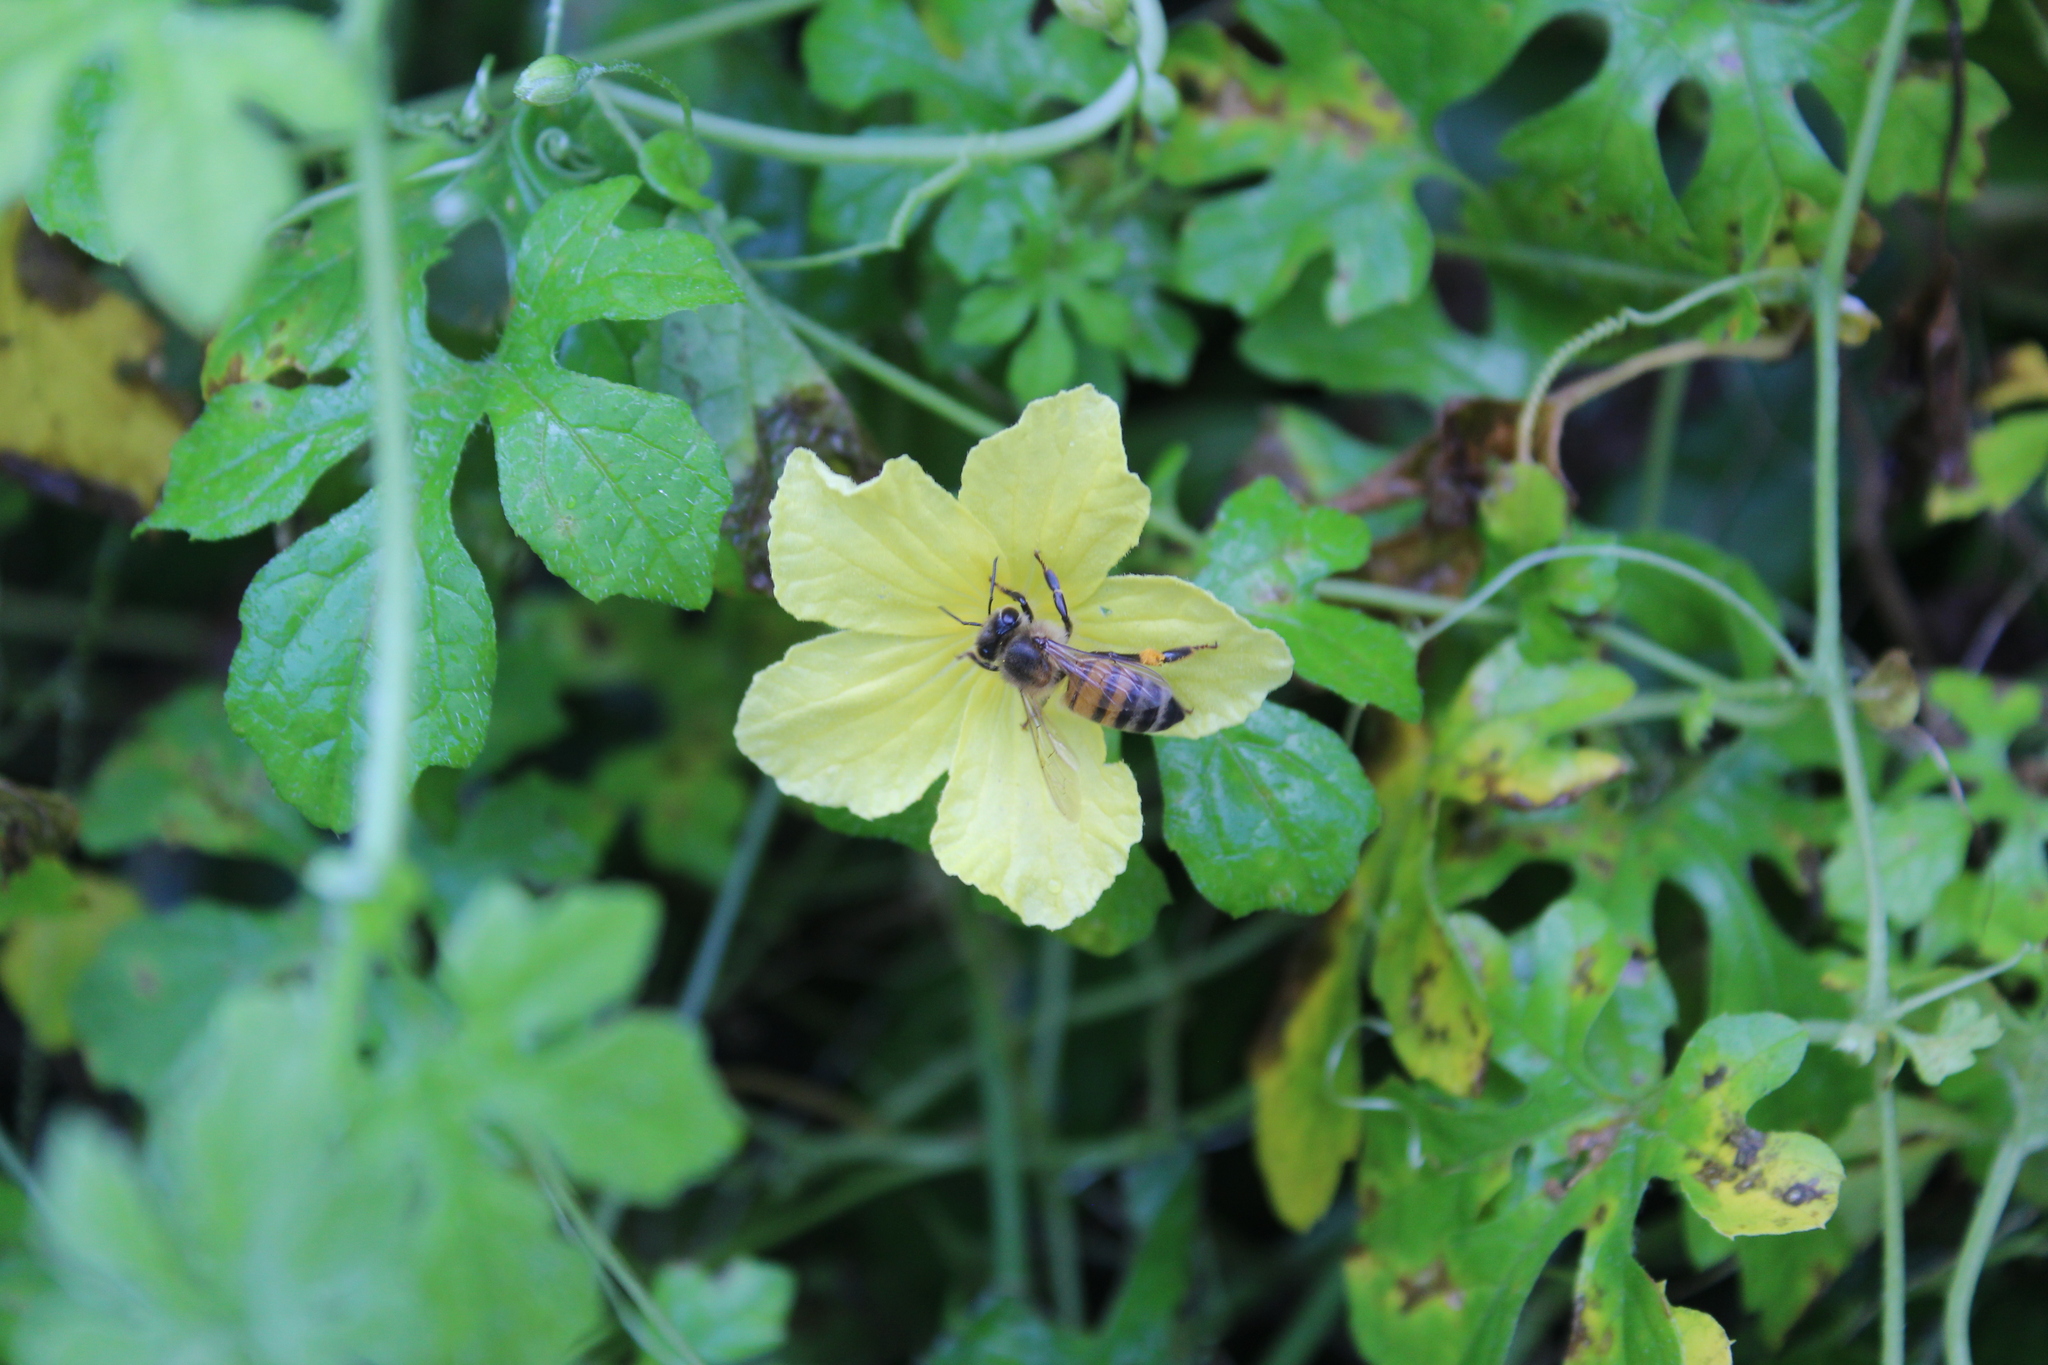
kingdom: Animalia
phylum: Arthropoda
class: Insecta
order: Hymenoptera
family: Apidae
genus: Apis
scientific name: Apis mellifera
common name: Honey bee
